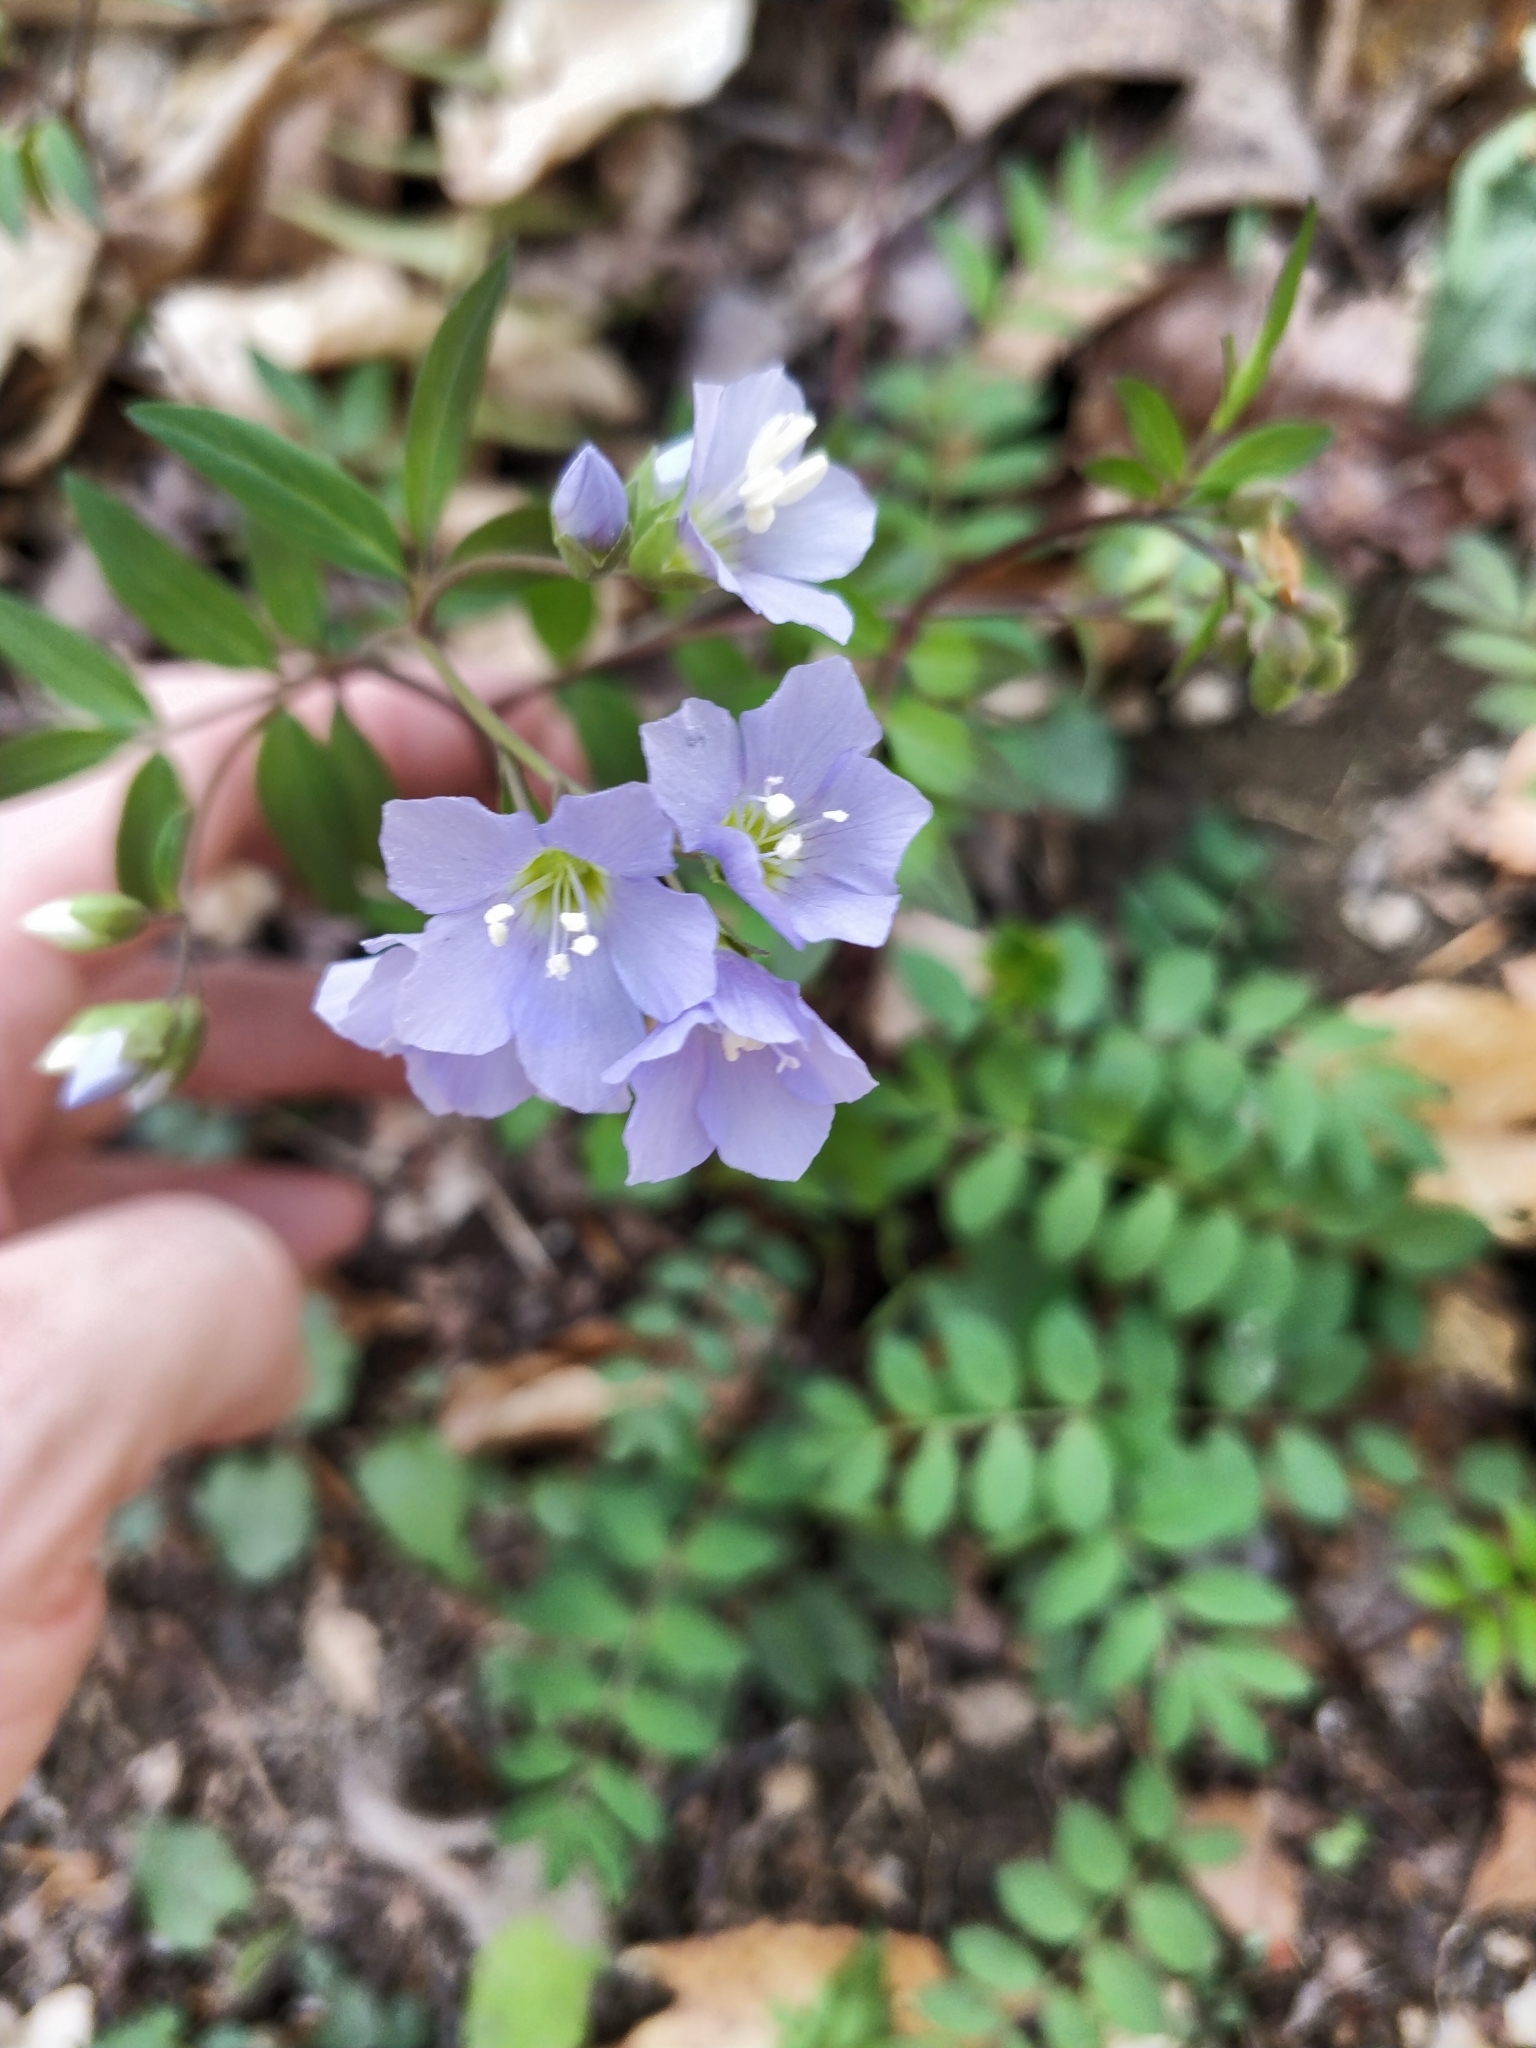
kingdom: Plantae
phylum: Tracheophyta
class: Magnoliopsida
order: Ericales
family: Polemoniaceae
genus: Polemonium
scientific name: Polemonium reptans
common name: Creeping jacob's-ladder
